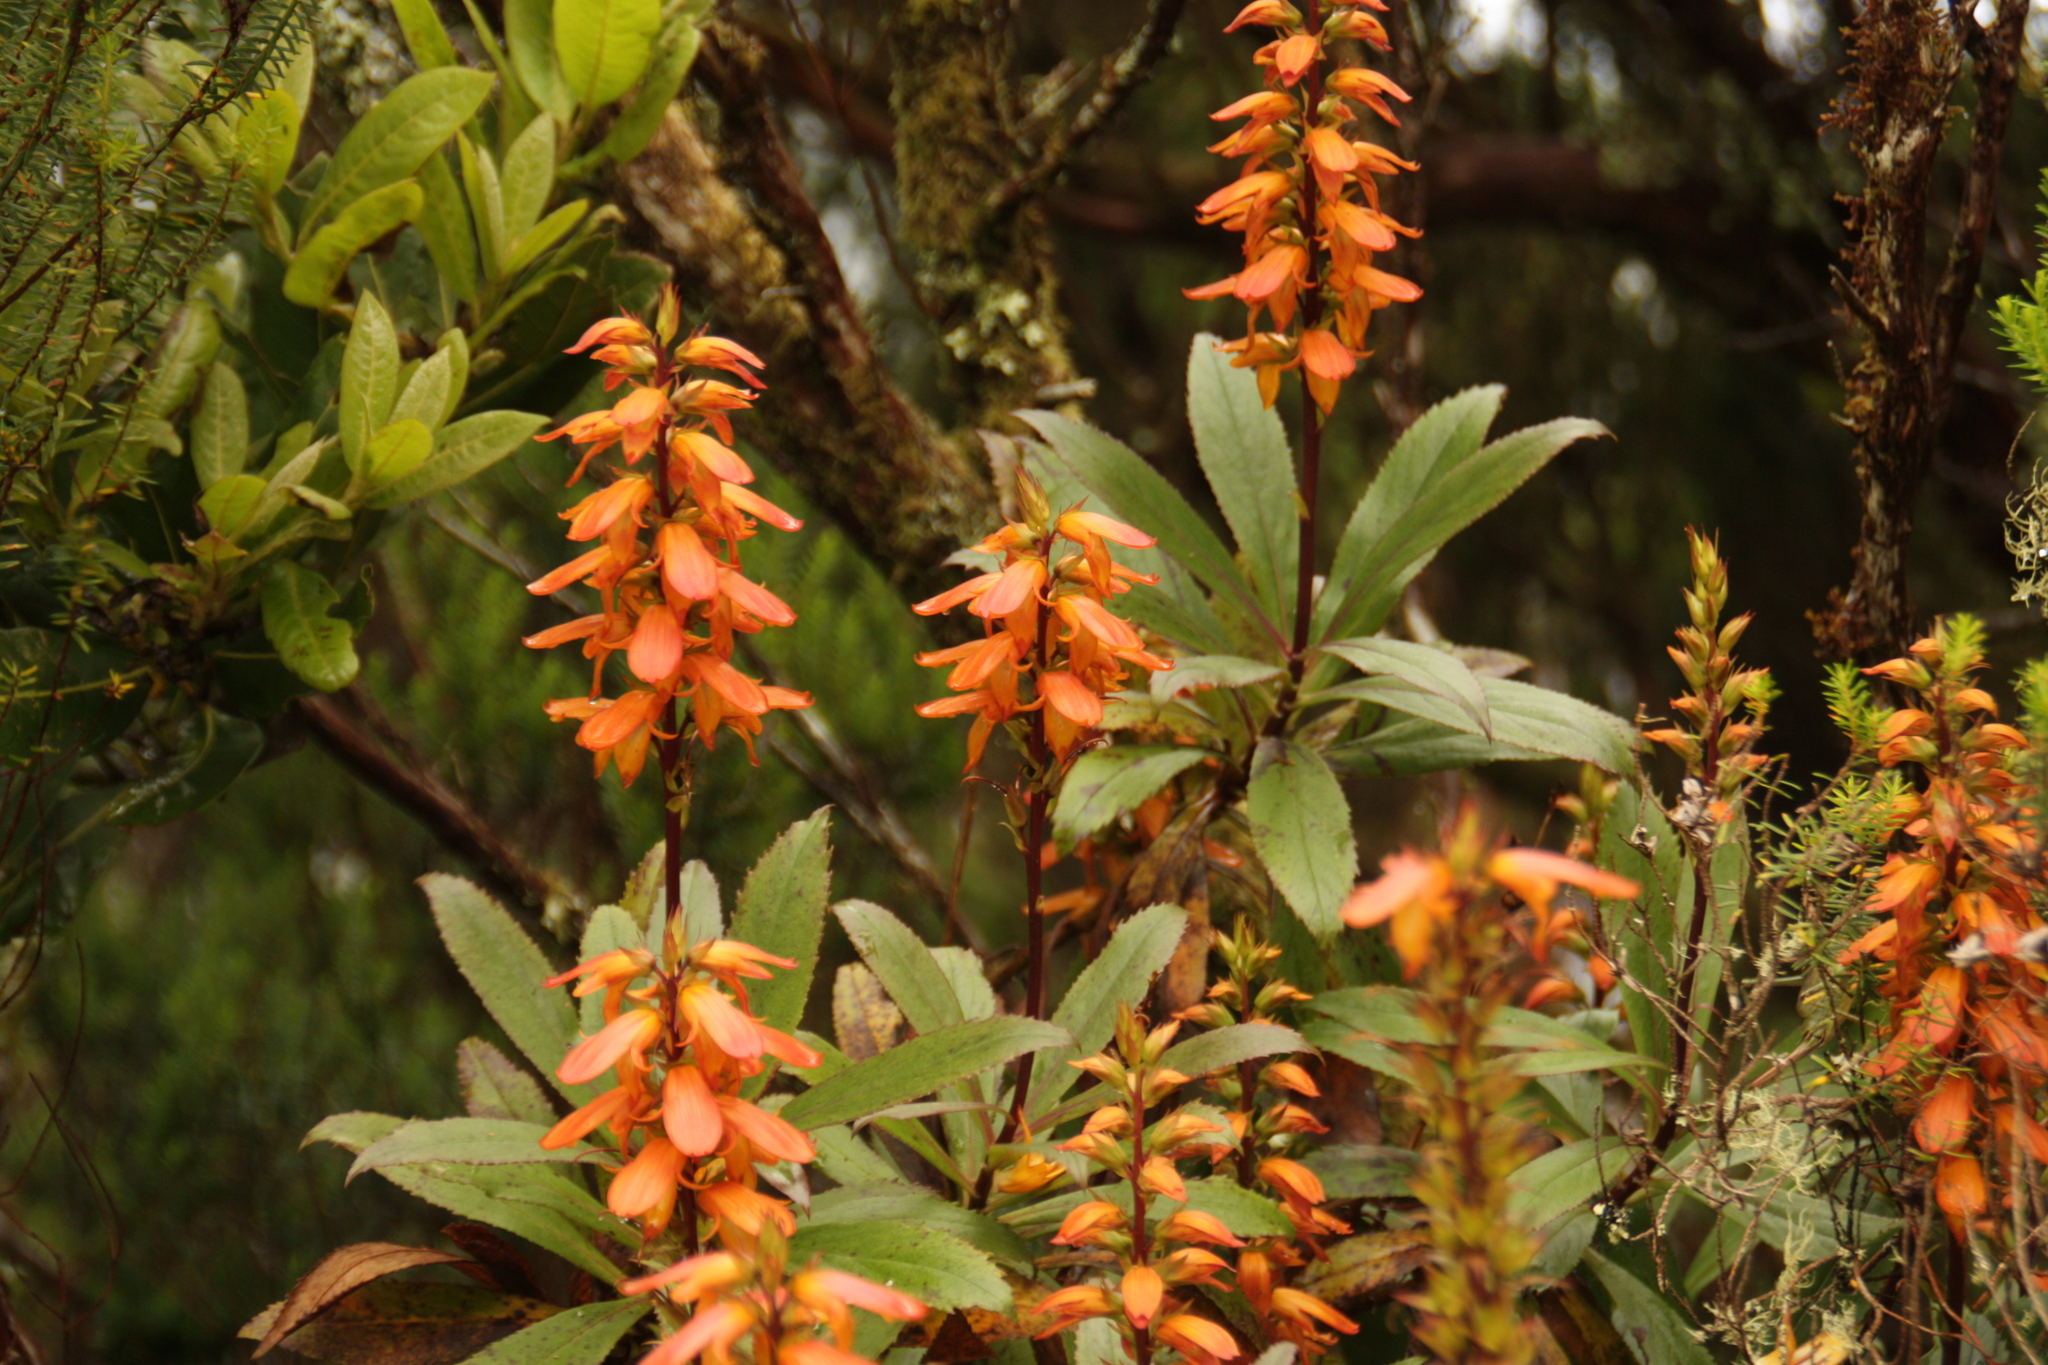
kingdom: Plantae
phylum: Tracheophyta
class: Magnoliopsida
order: Lamiales
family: Plantaginaceae
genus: Digitalis
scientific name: Digitalis canariensis
